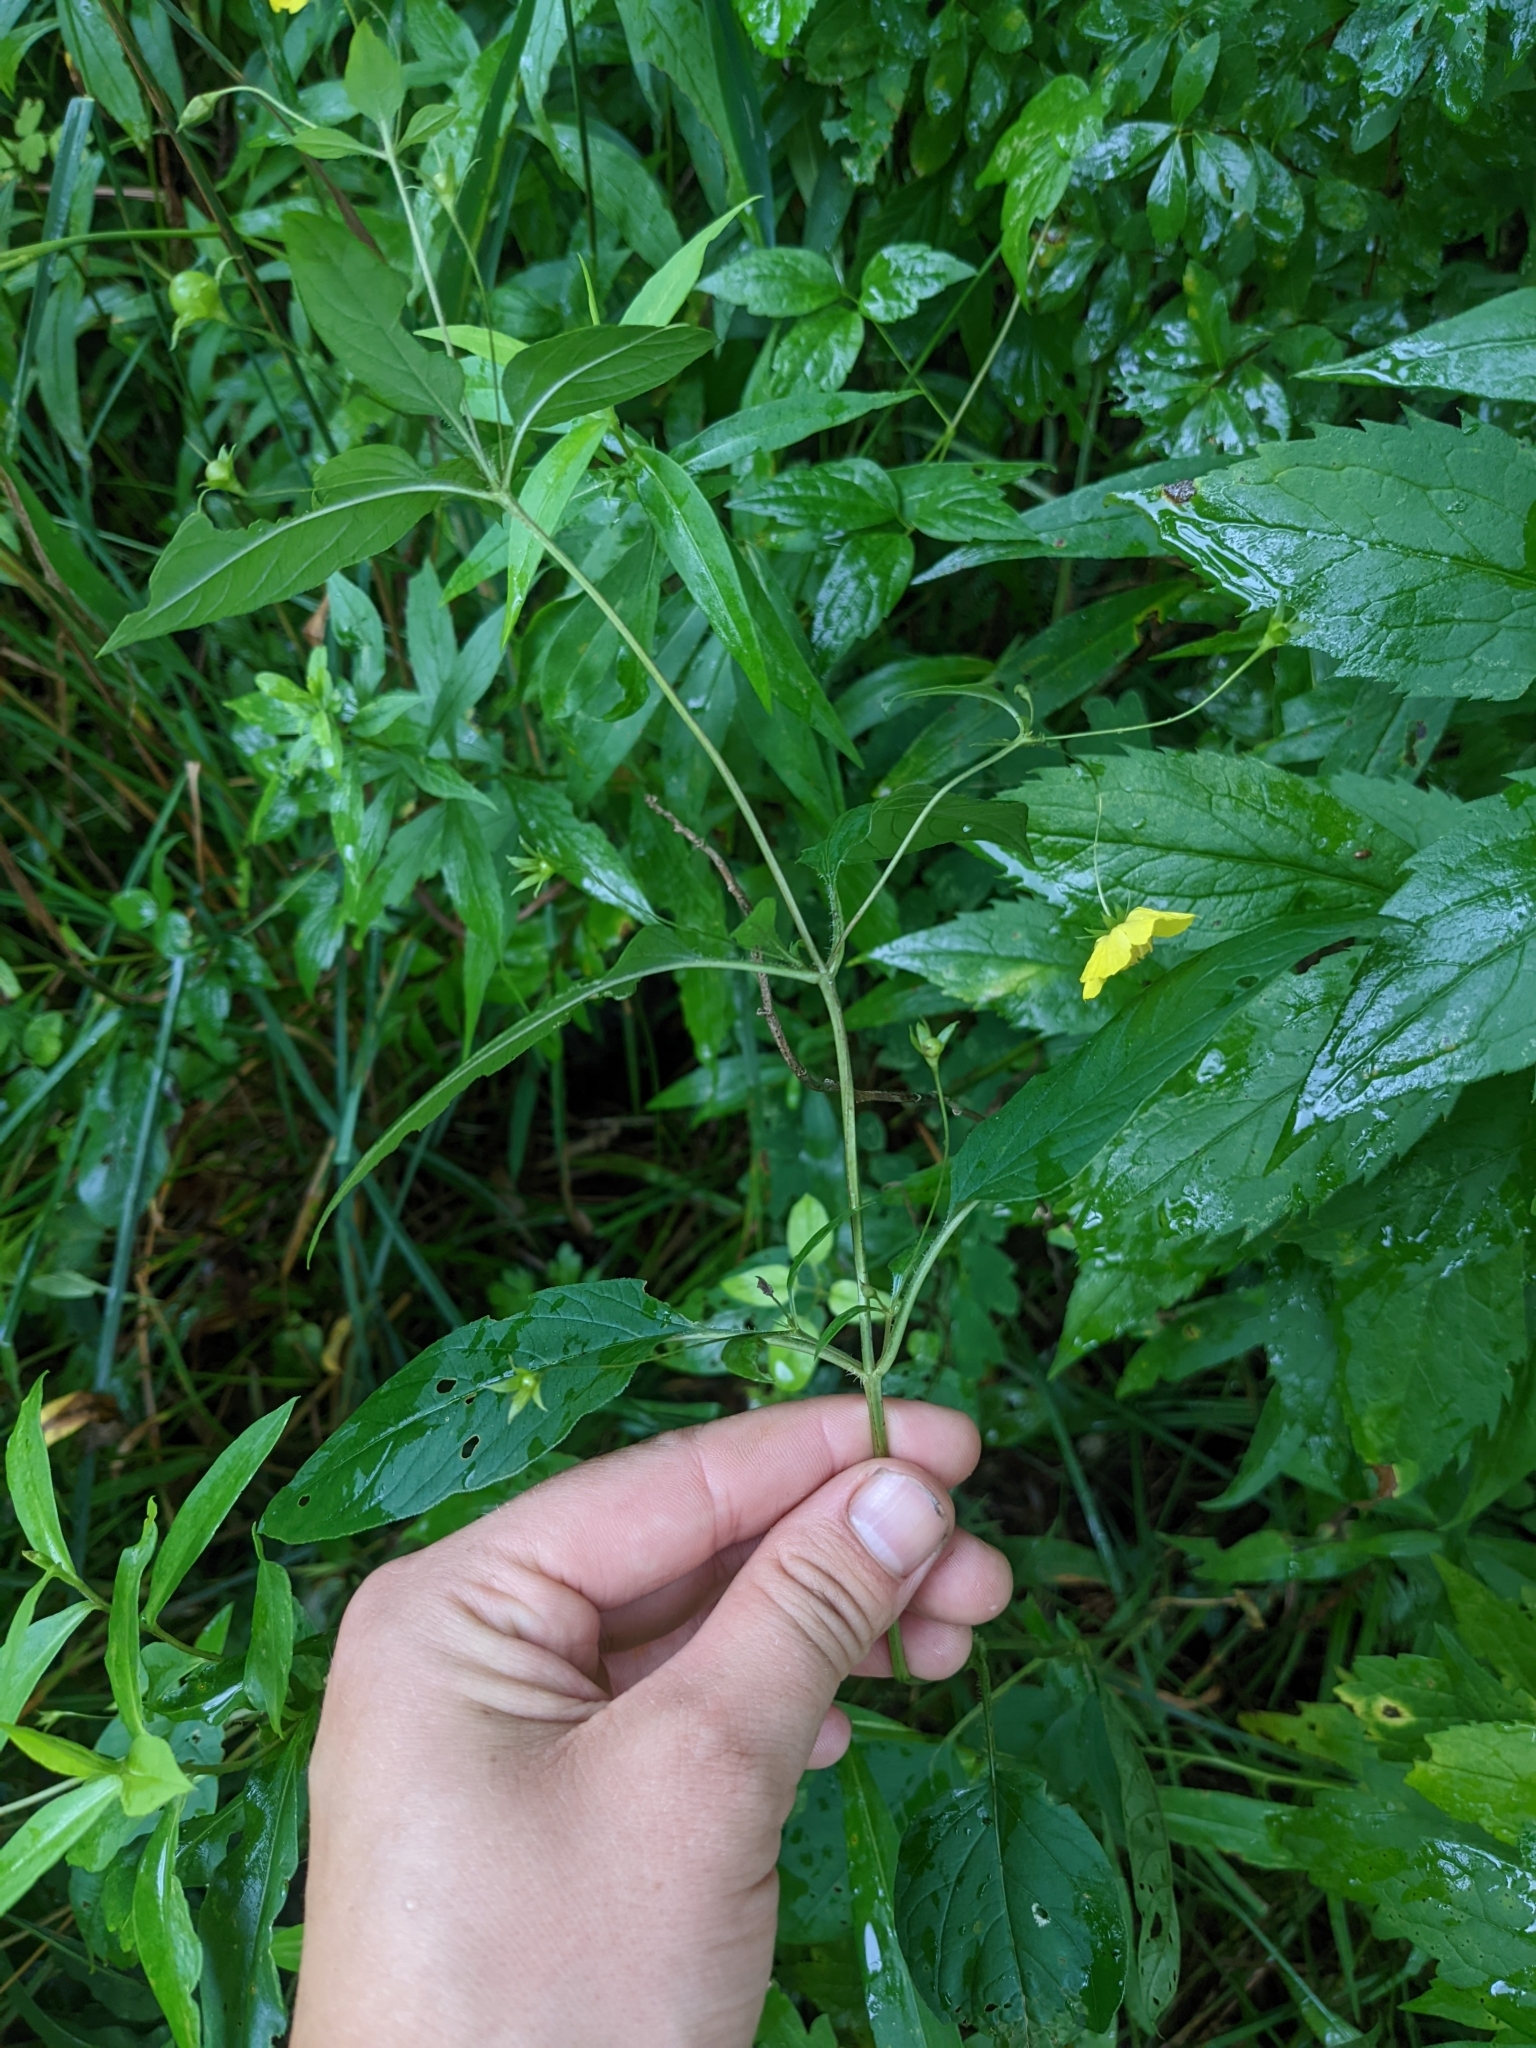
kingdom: Plantae
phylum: Tracheophyta
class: Magnoliopsida
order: Ericales
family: Primulaceae
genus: Lysimachia
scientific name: Lysimachia ciliata
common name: Fringed loosestrife
